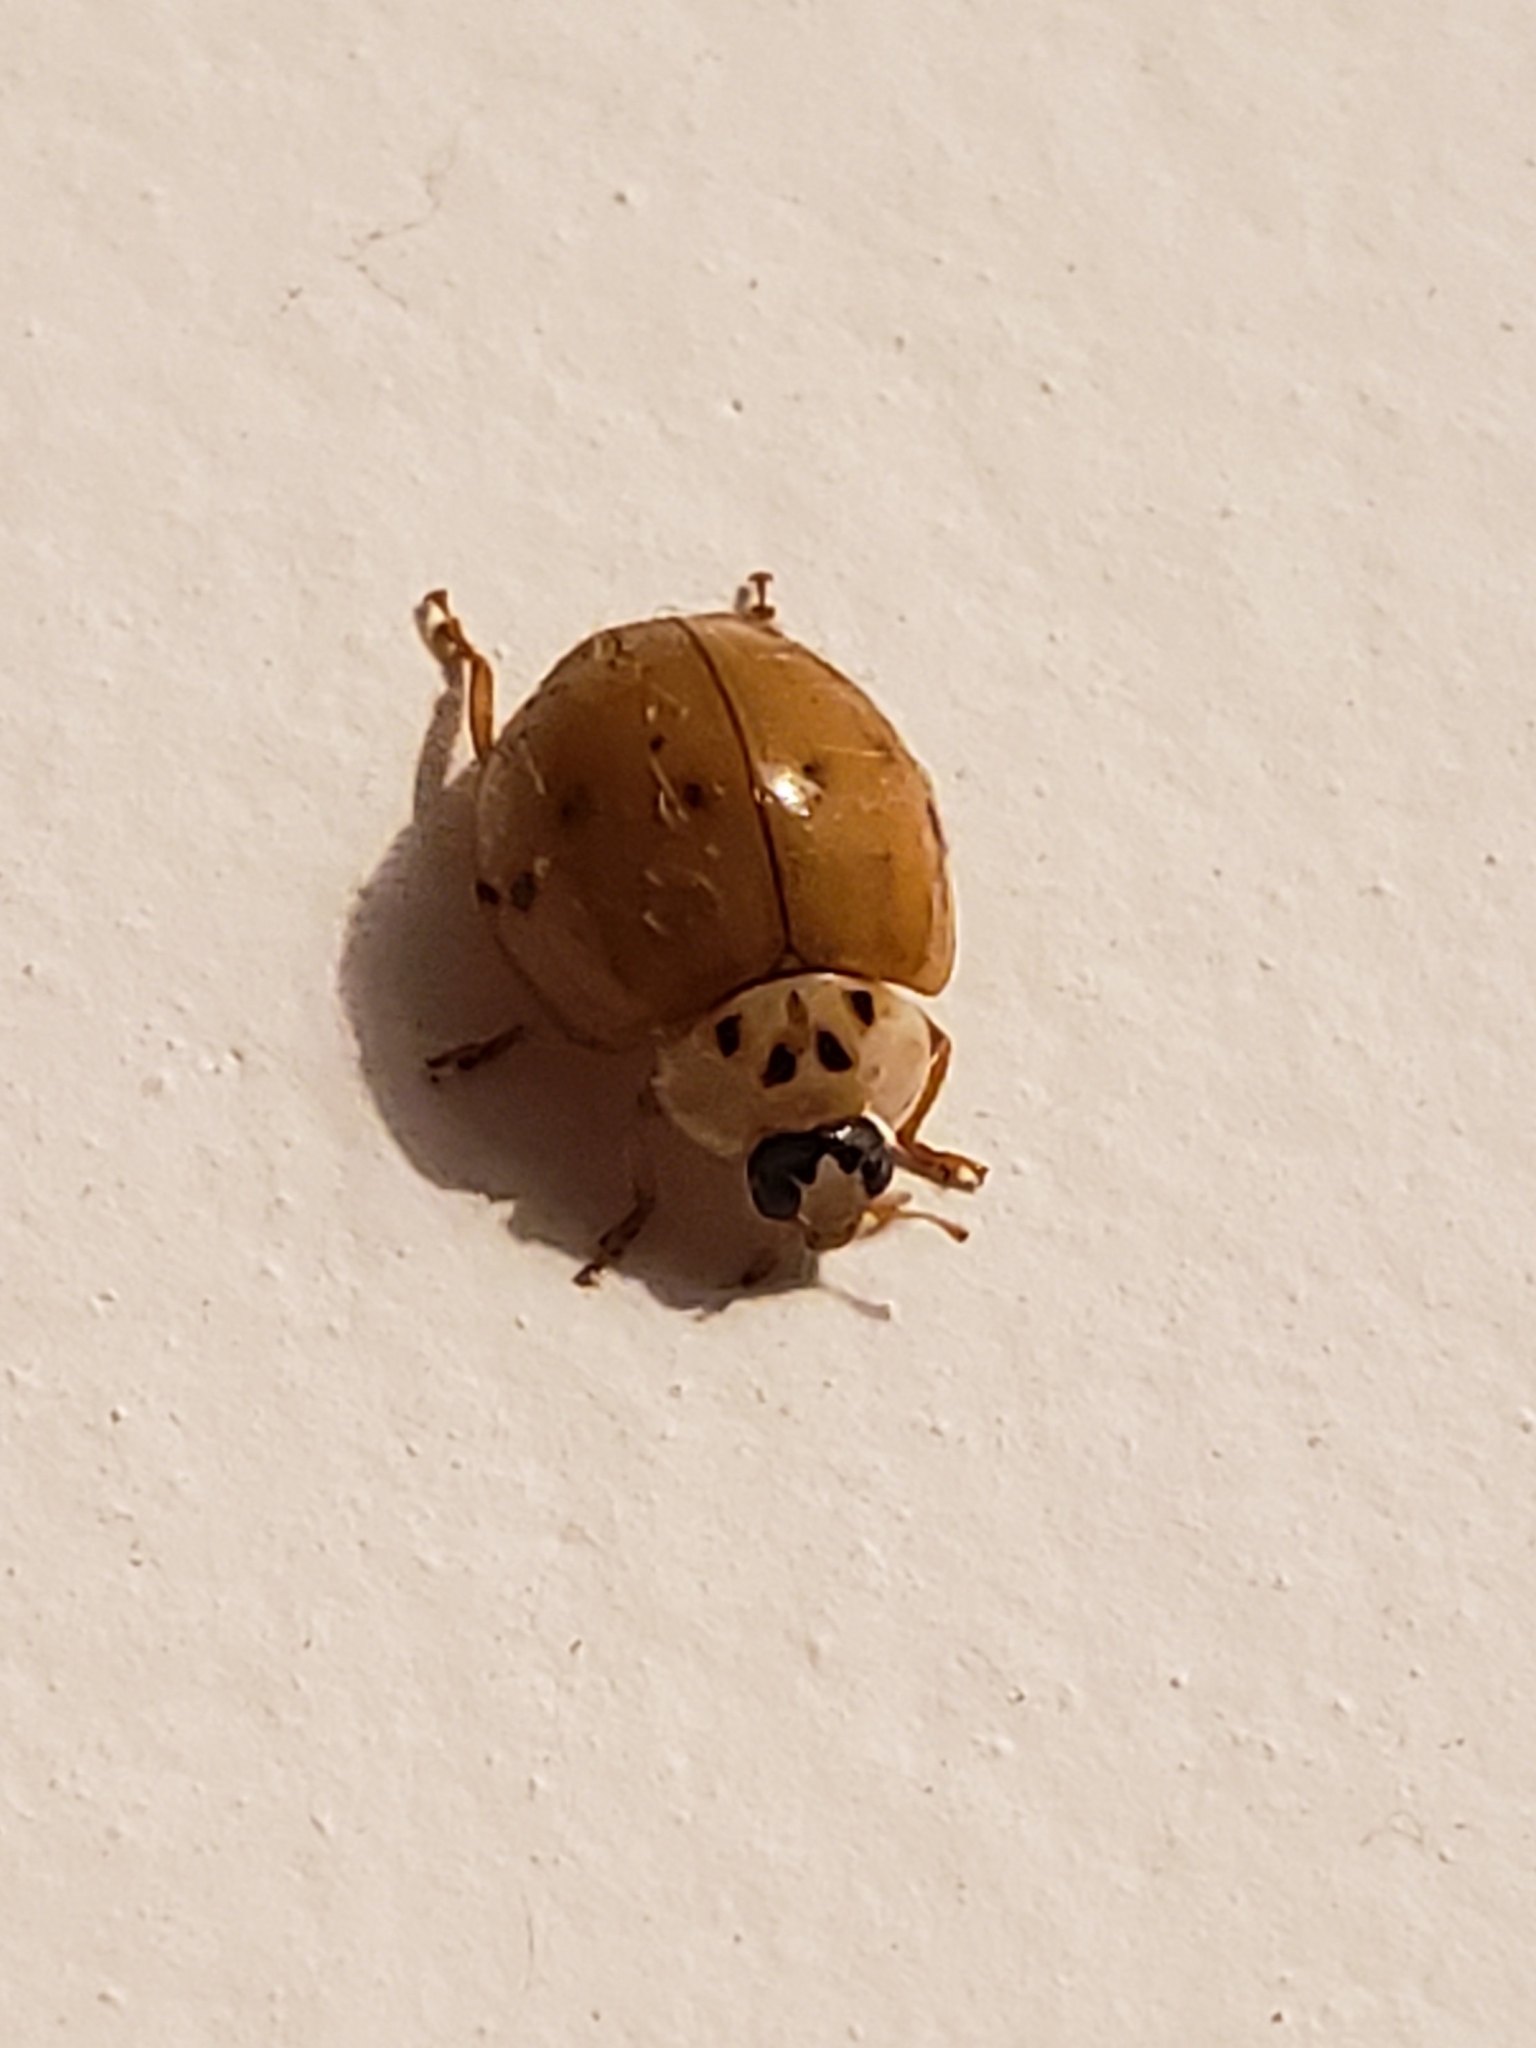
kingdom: Animalia
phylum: Arthropoda
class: Insecta
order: Coleoptera
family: Coccinellidae
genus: Harmonia
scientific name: Harmonia axyridis
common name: Harlequin ladybird
